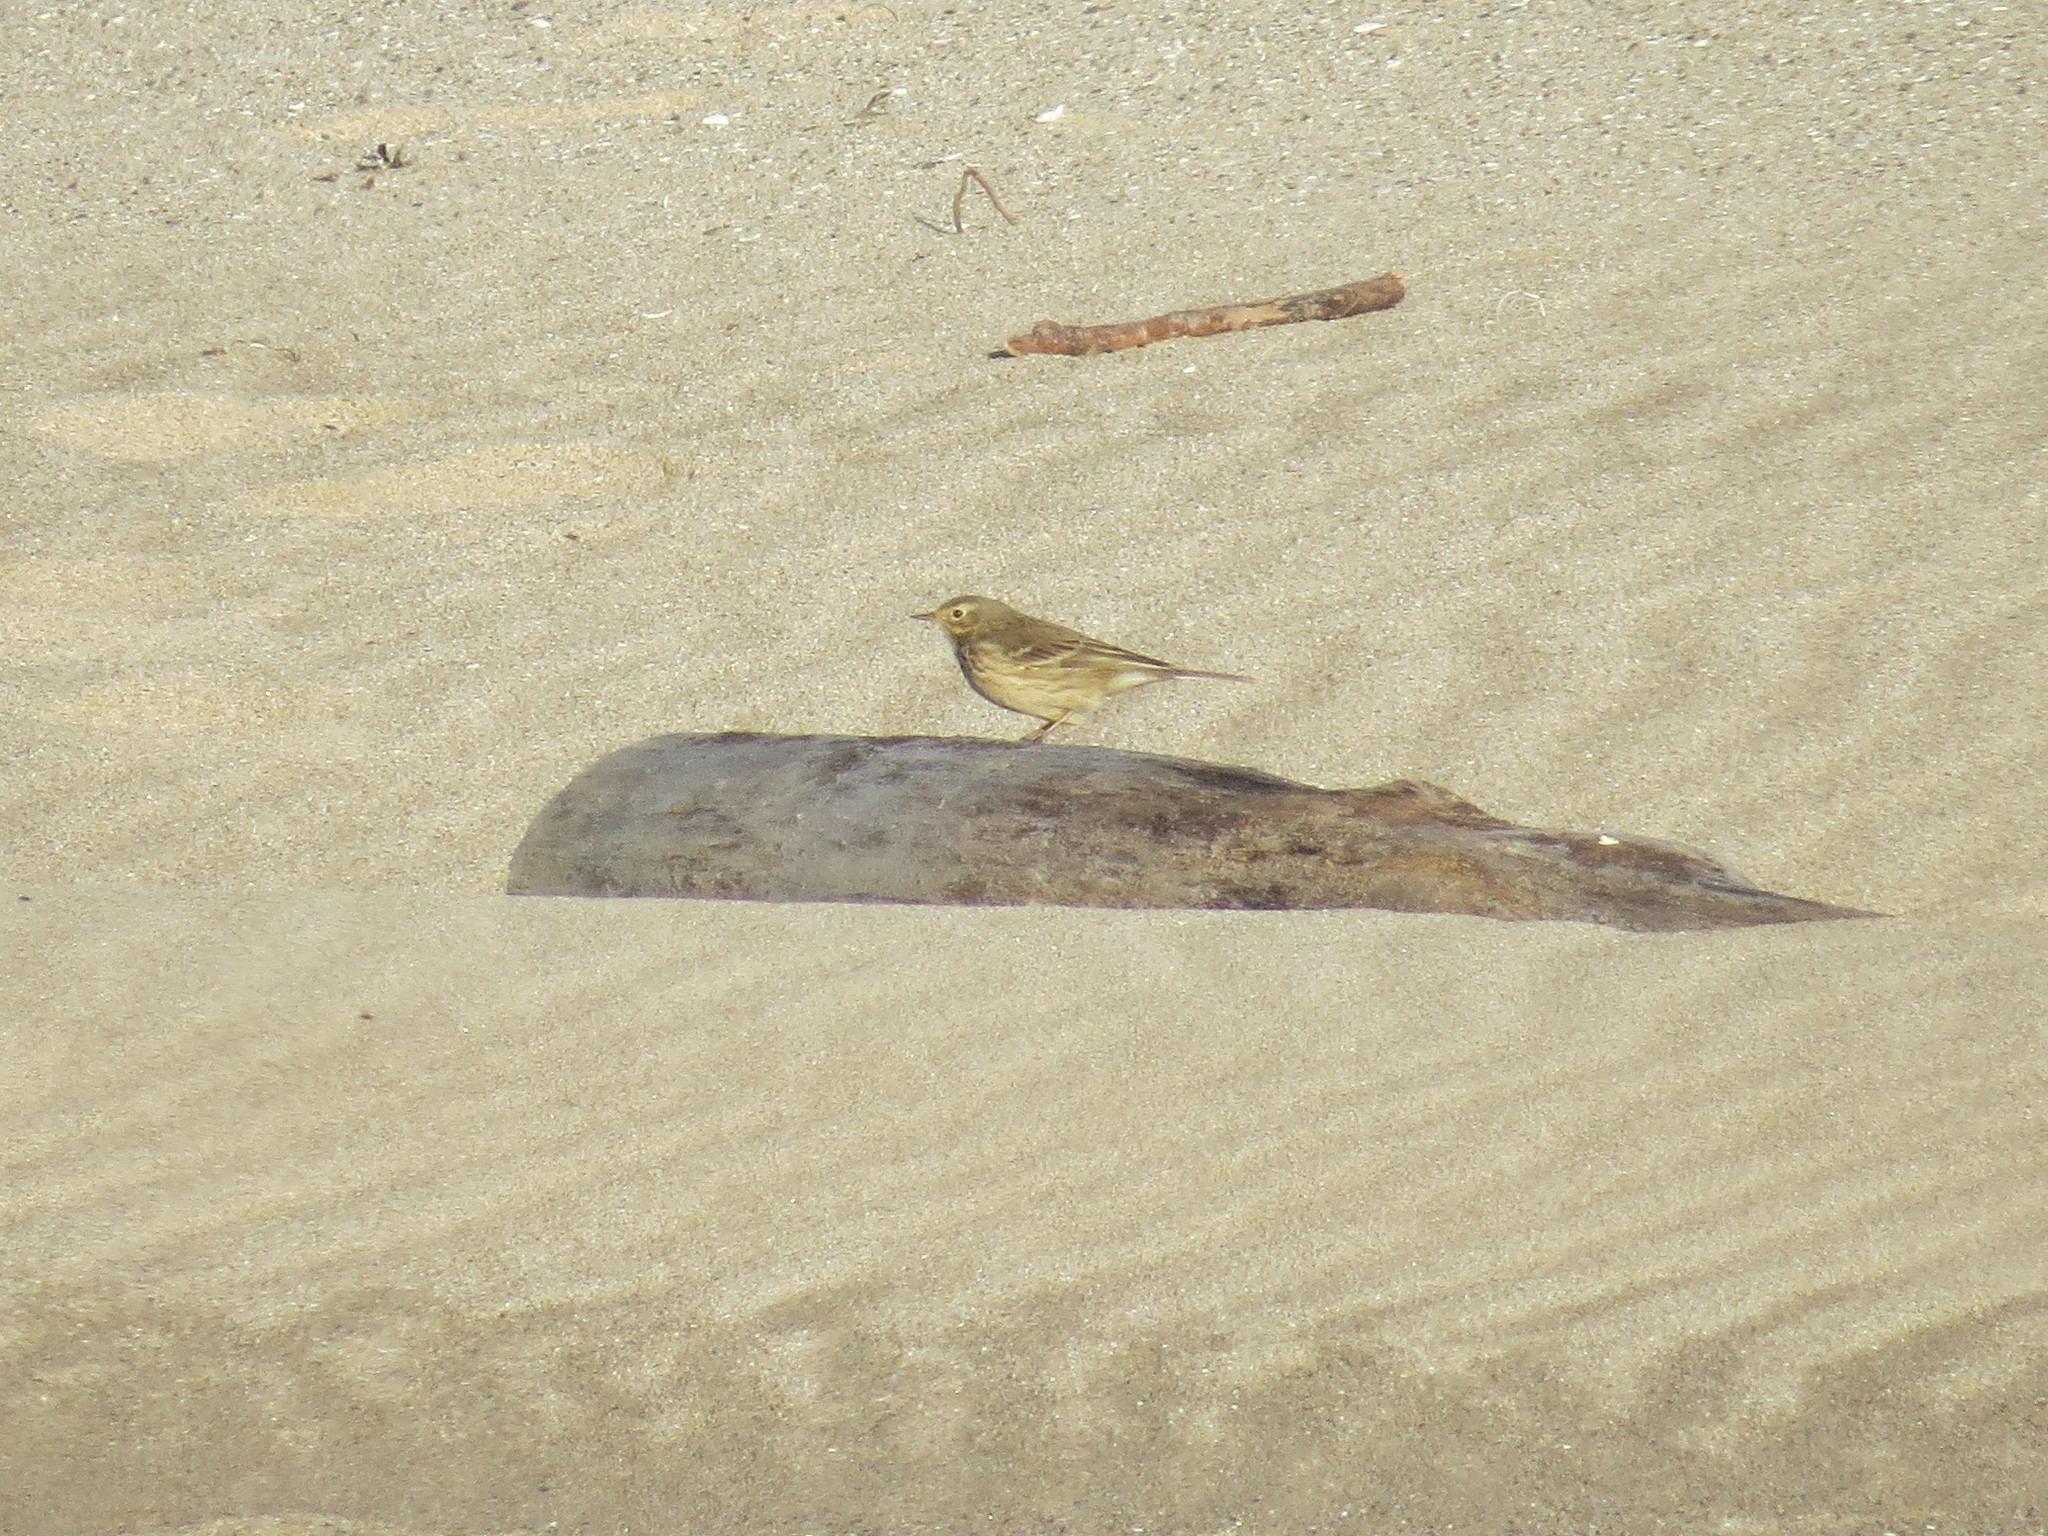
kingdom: Animalia
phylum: Chordata
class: Aves
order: Passeriformes
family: Motacillidae
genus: Anthus
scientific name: Anthus rubescens
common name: Buff-bellied pipit
